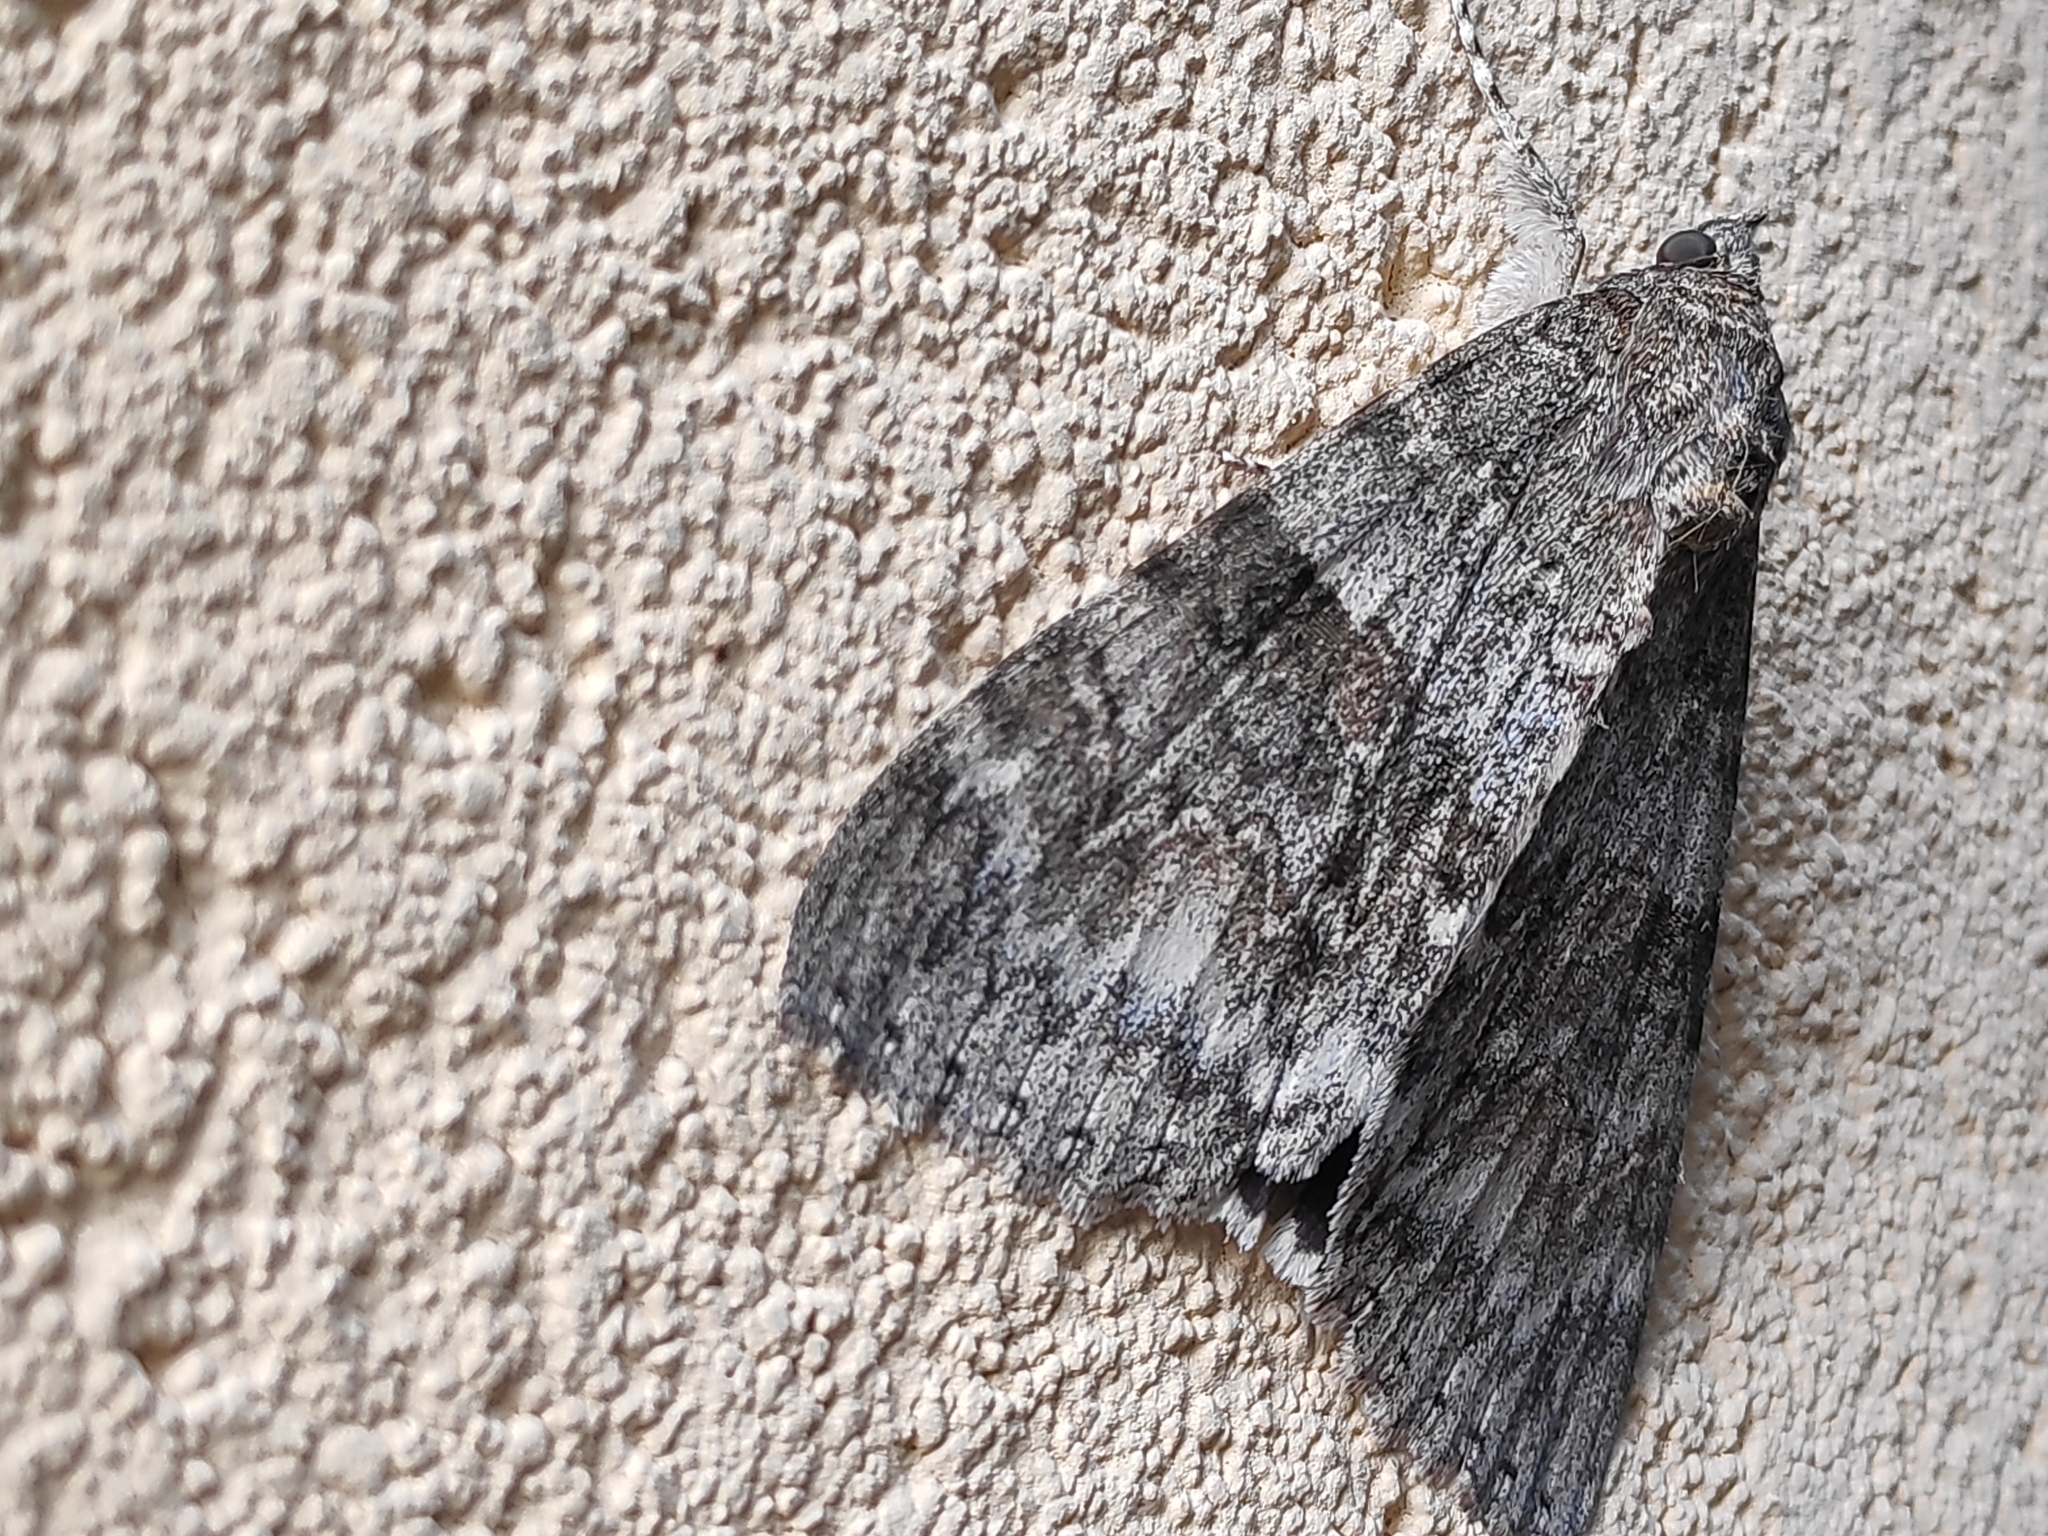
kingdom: Animalia
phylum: Arthropoda
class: Insecta
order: Lepidoptera
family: Erebidae
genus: Catocala
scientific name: Catocala nupta
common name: Red underwing
